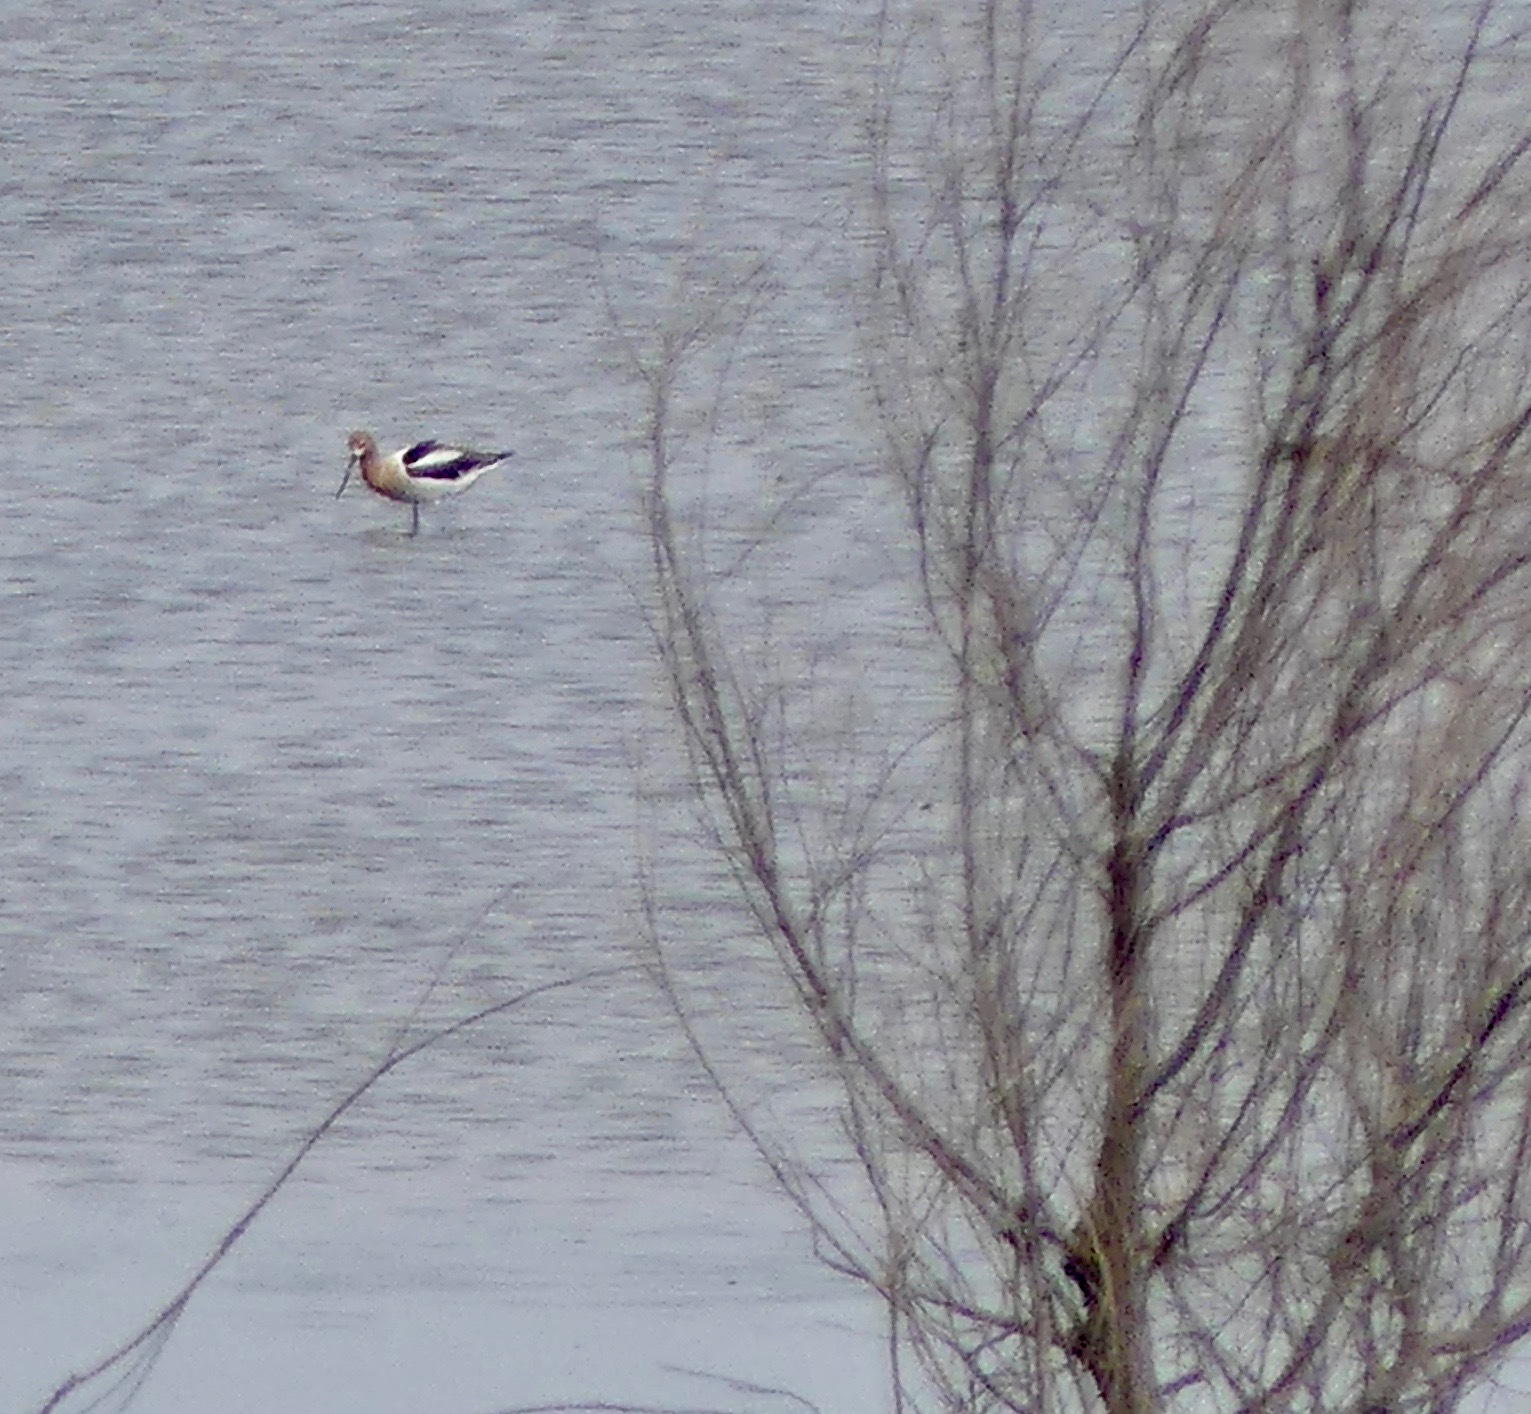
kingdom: Animalia
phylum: Chordata
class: Aves
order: Charadriiformes
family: Recurvirostridae
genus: Recurvirostra
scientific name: Recurvirostra americana
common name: American avocet
